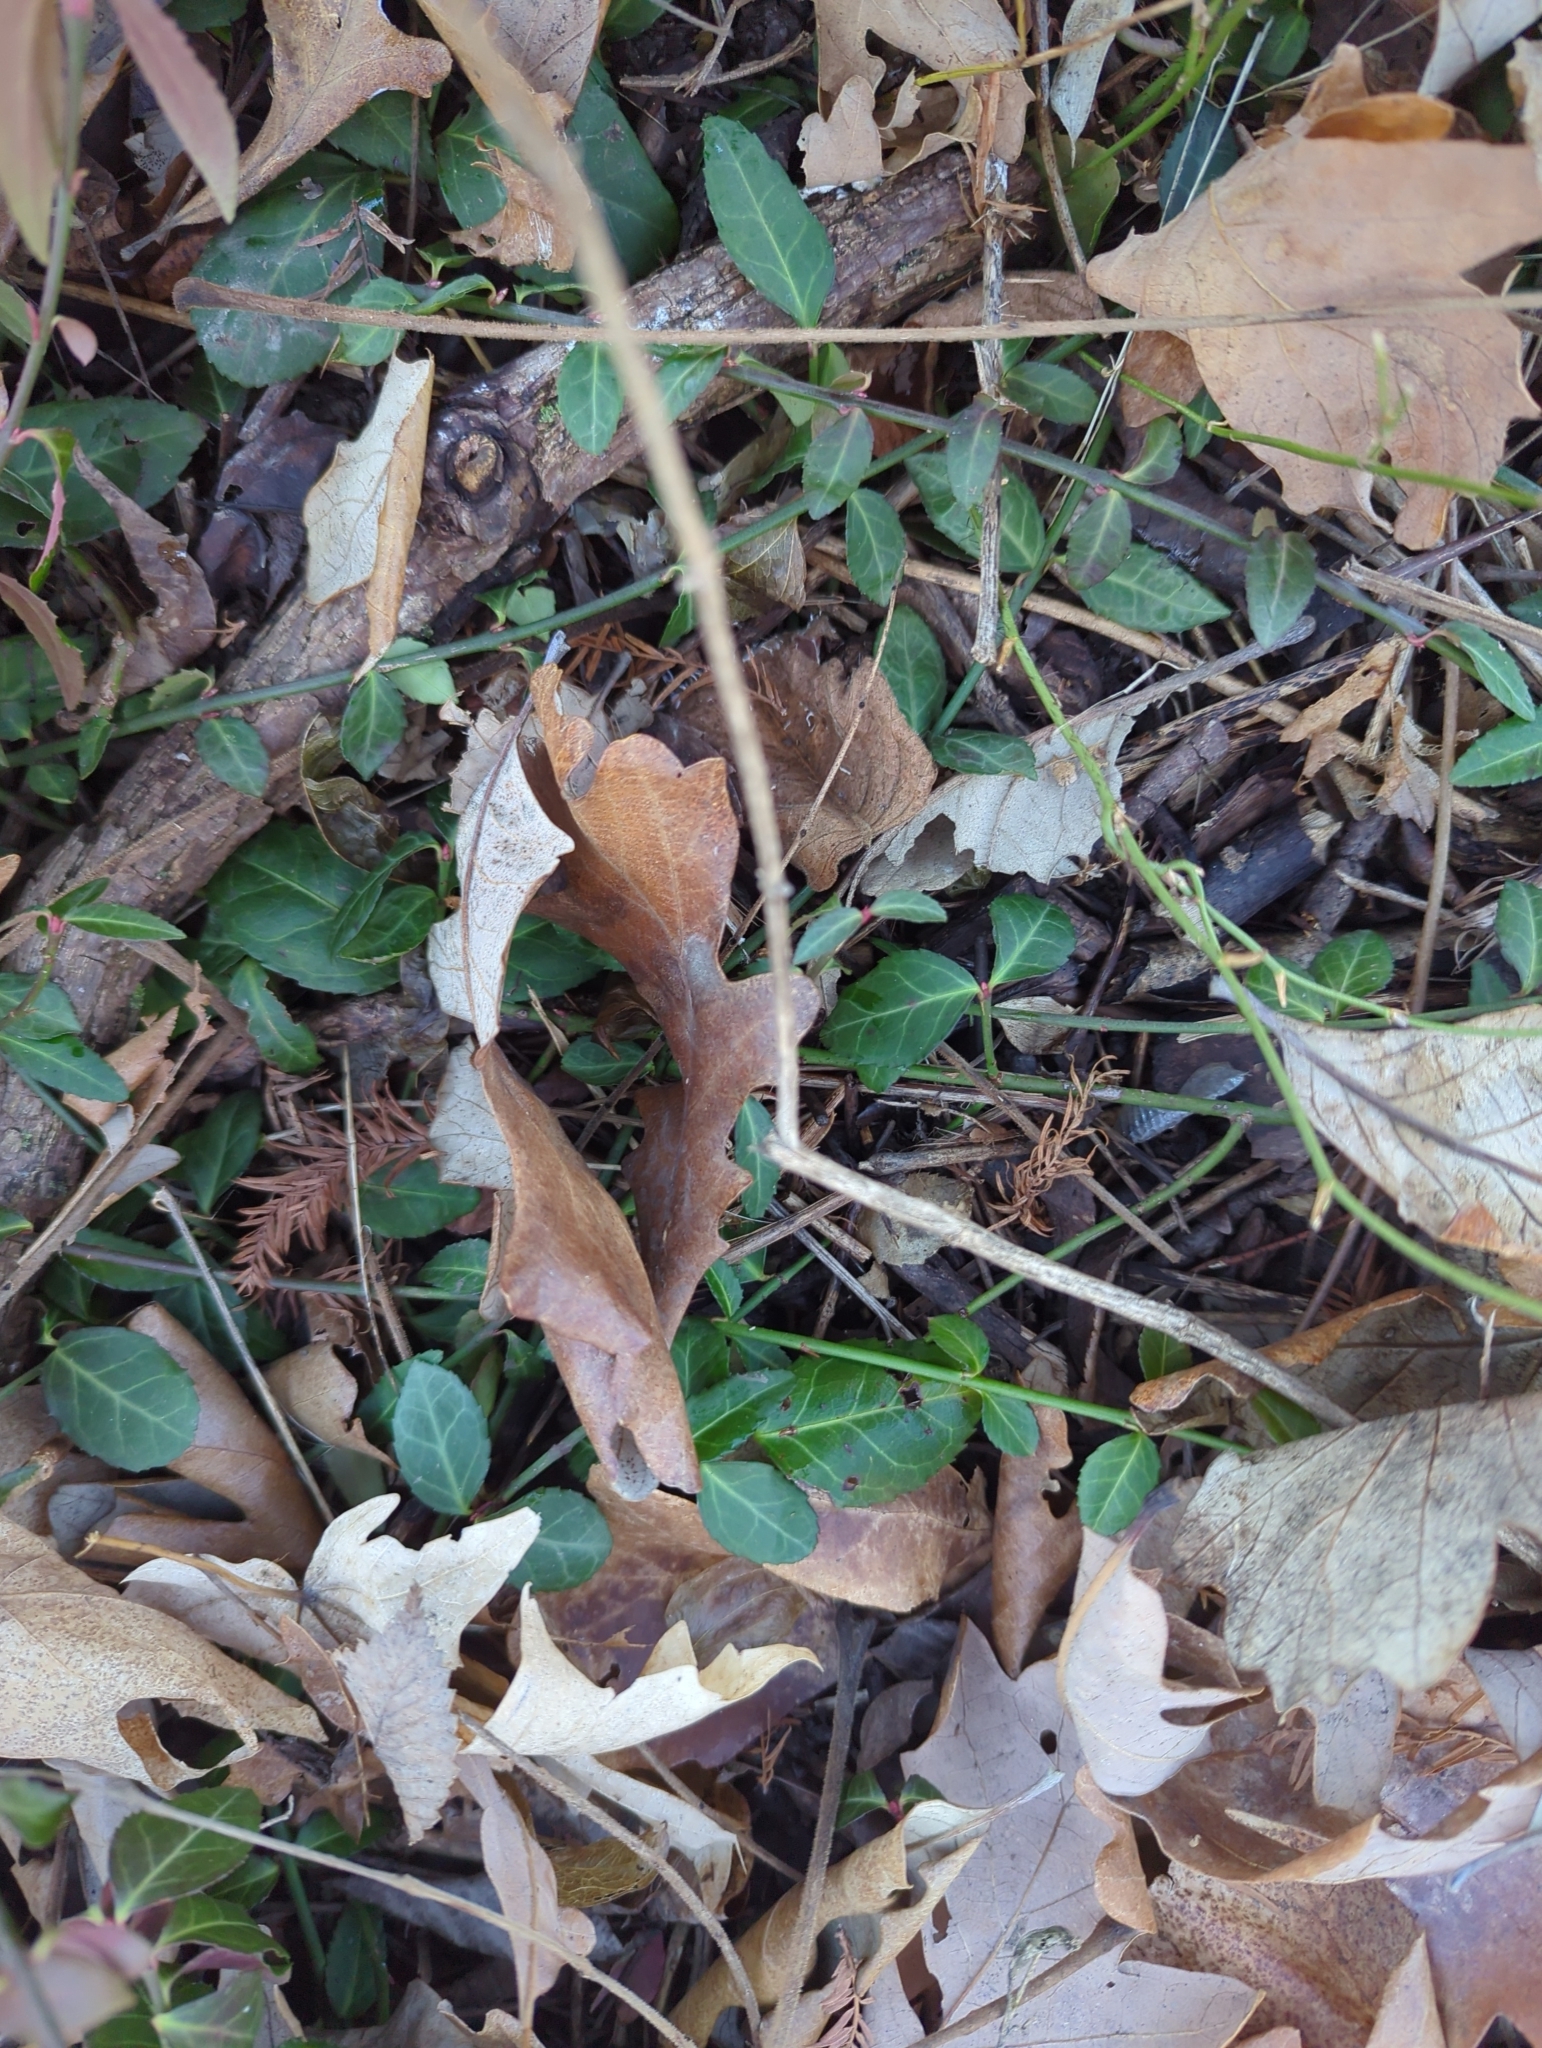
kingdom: Plantae
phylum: Tracheophyta
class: Magnoliopsida
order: Celastrales
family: Celastraceae
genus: Euonymus
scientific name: Euonymus fortunei
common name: Climbing euonymus
